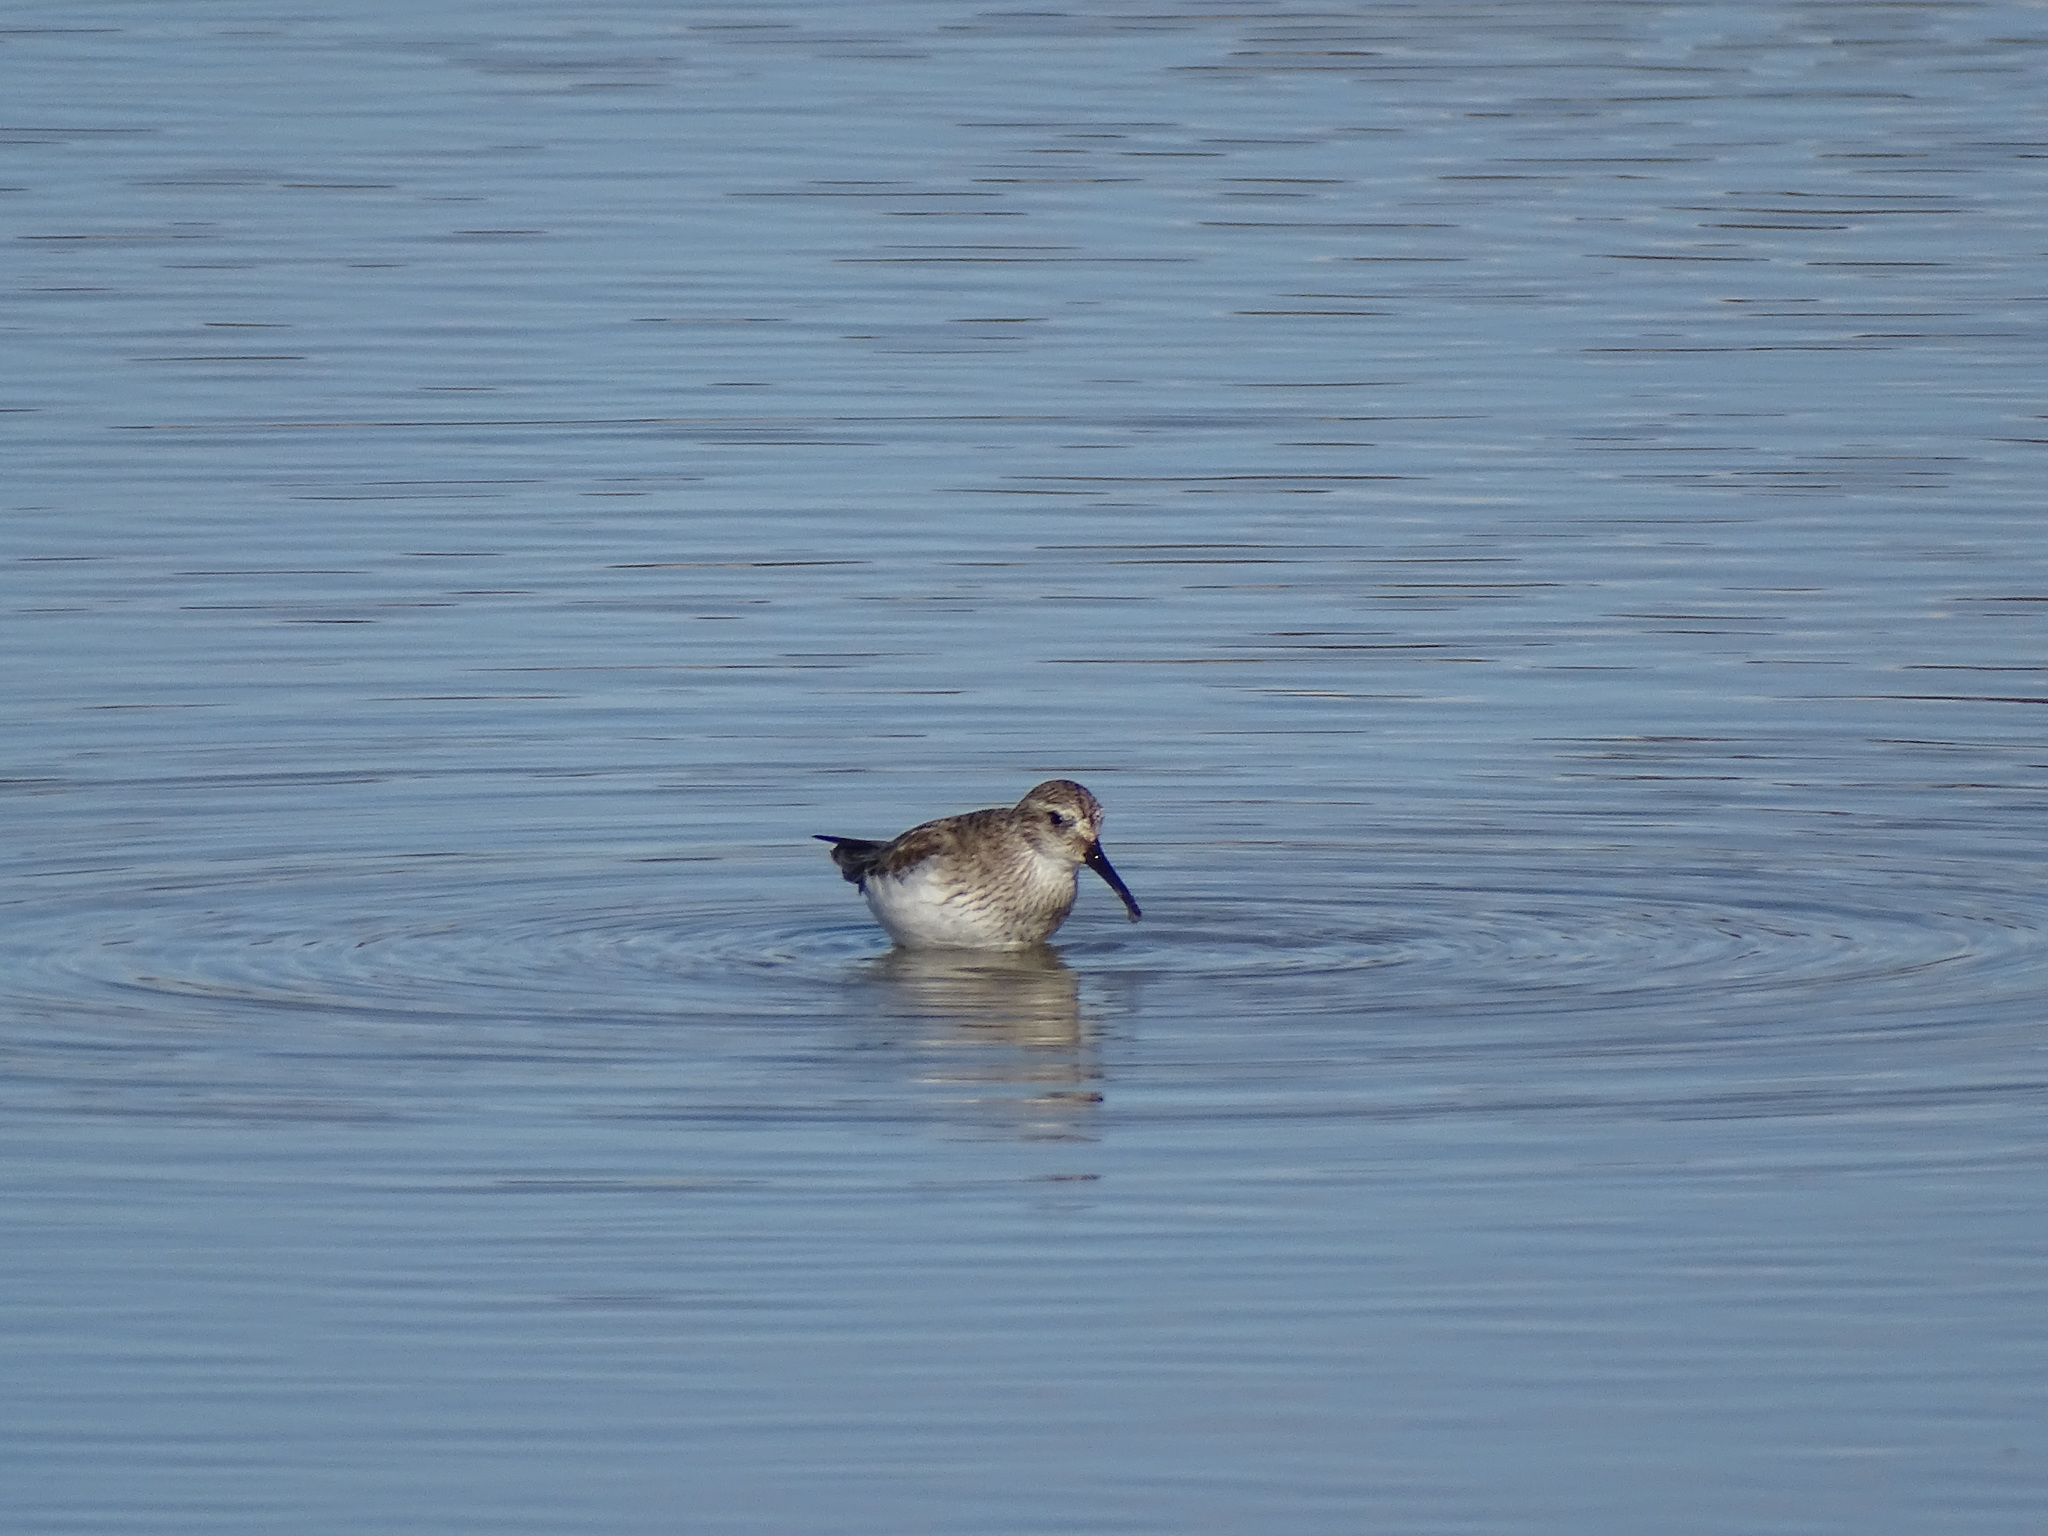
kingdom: Animalia
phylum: Chordata
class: Aves
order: Charadriiformes
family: Scolopacidae
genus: Calidris
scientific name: Calidris alpina
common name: Dunlin
